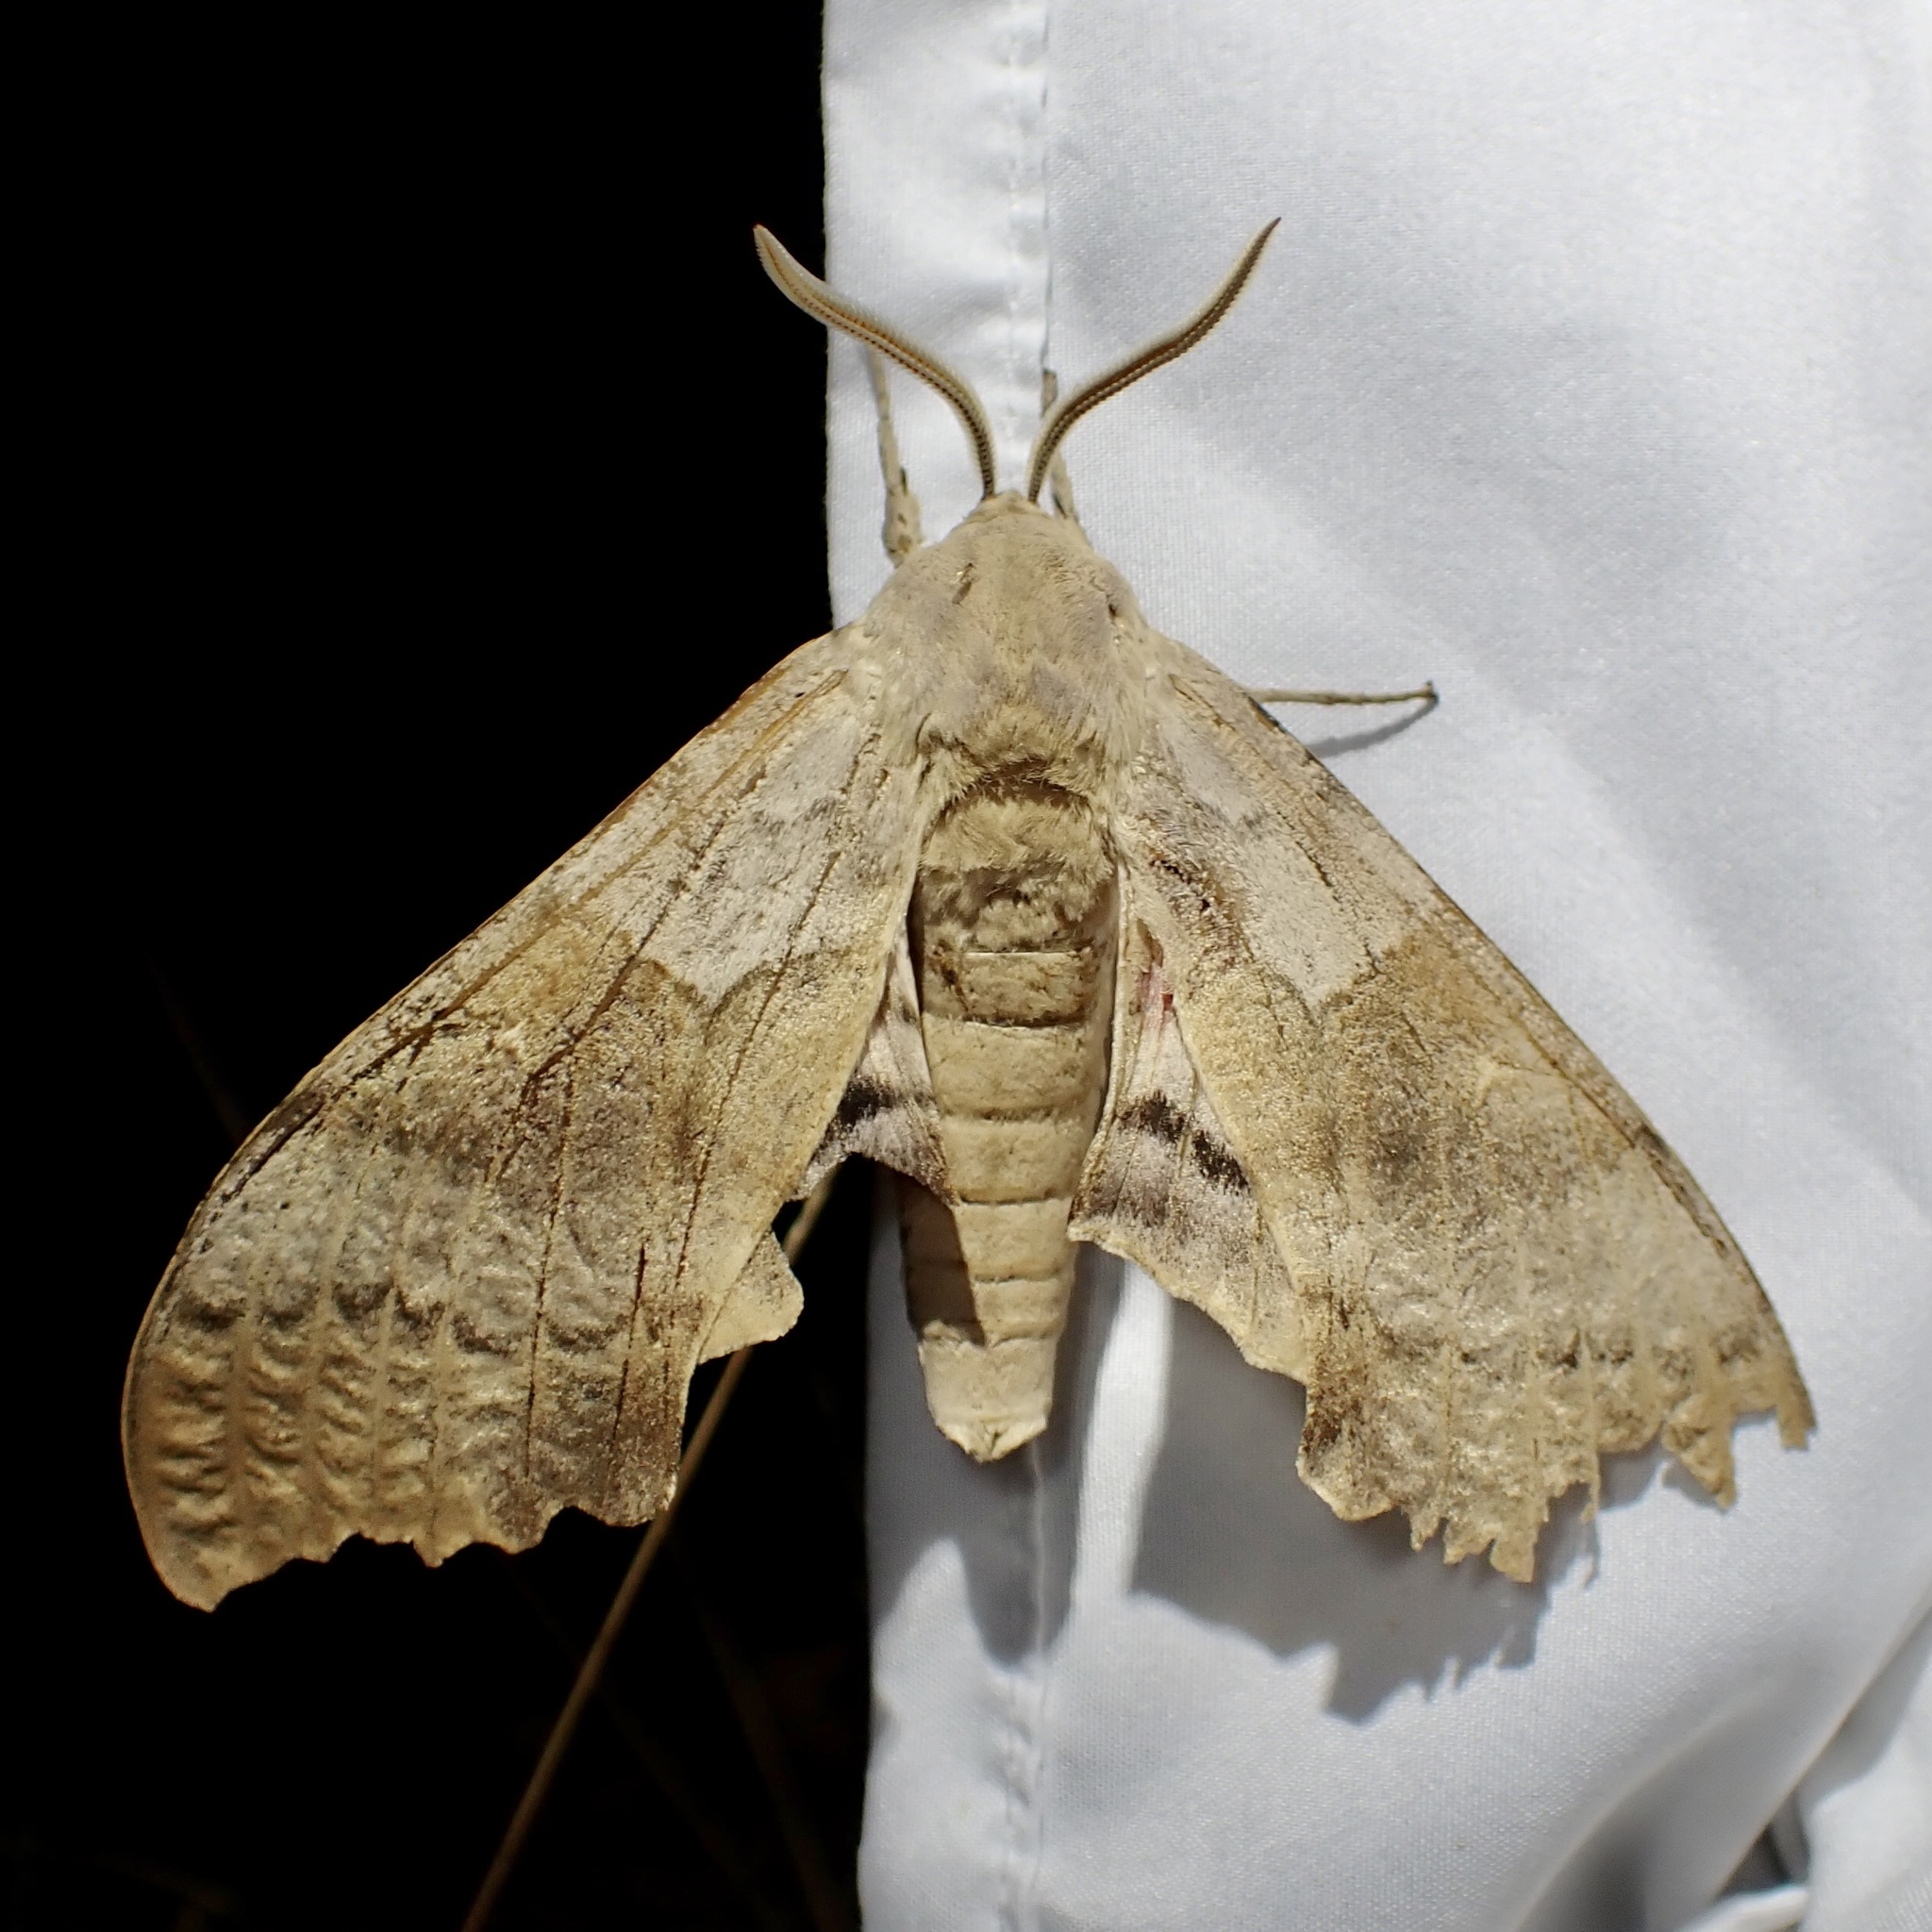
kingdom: Animalia
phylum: Arthropoda
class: Insecta
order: Lepidoptera
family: Sphingidae
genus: Pachysphinx
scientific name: Pachysphinx occidentalis
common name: Western poplar sphinx
